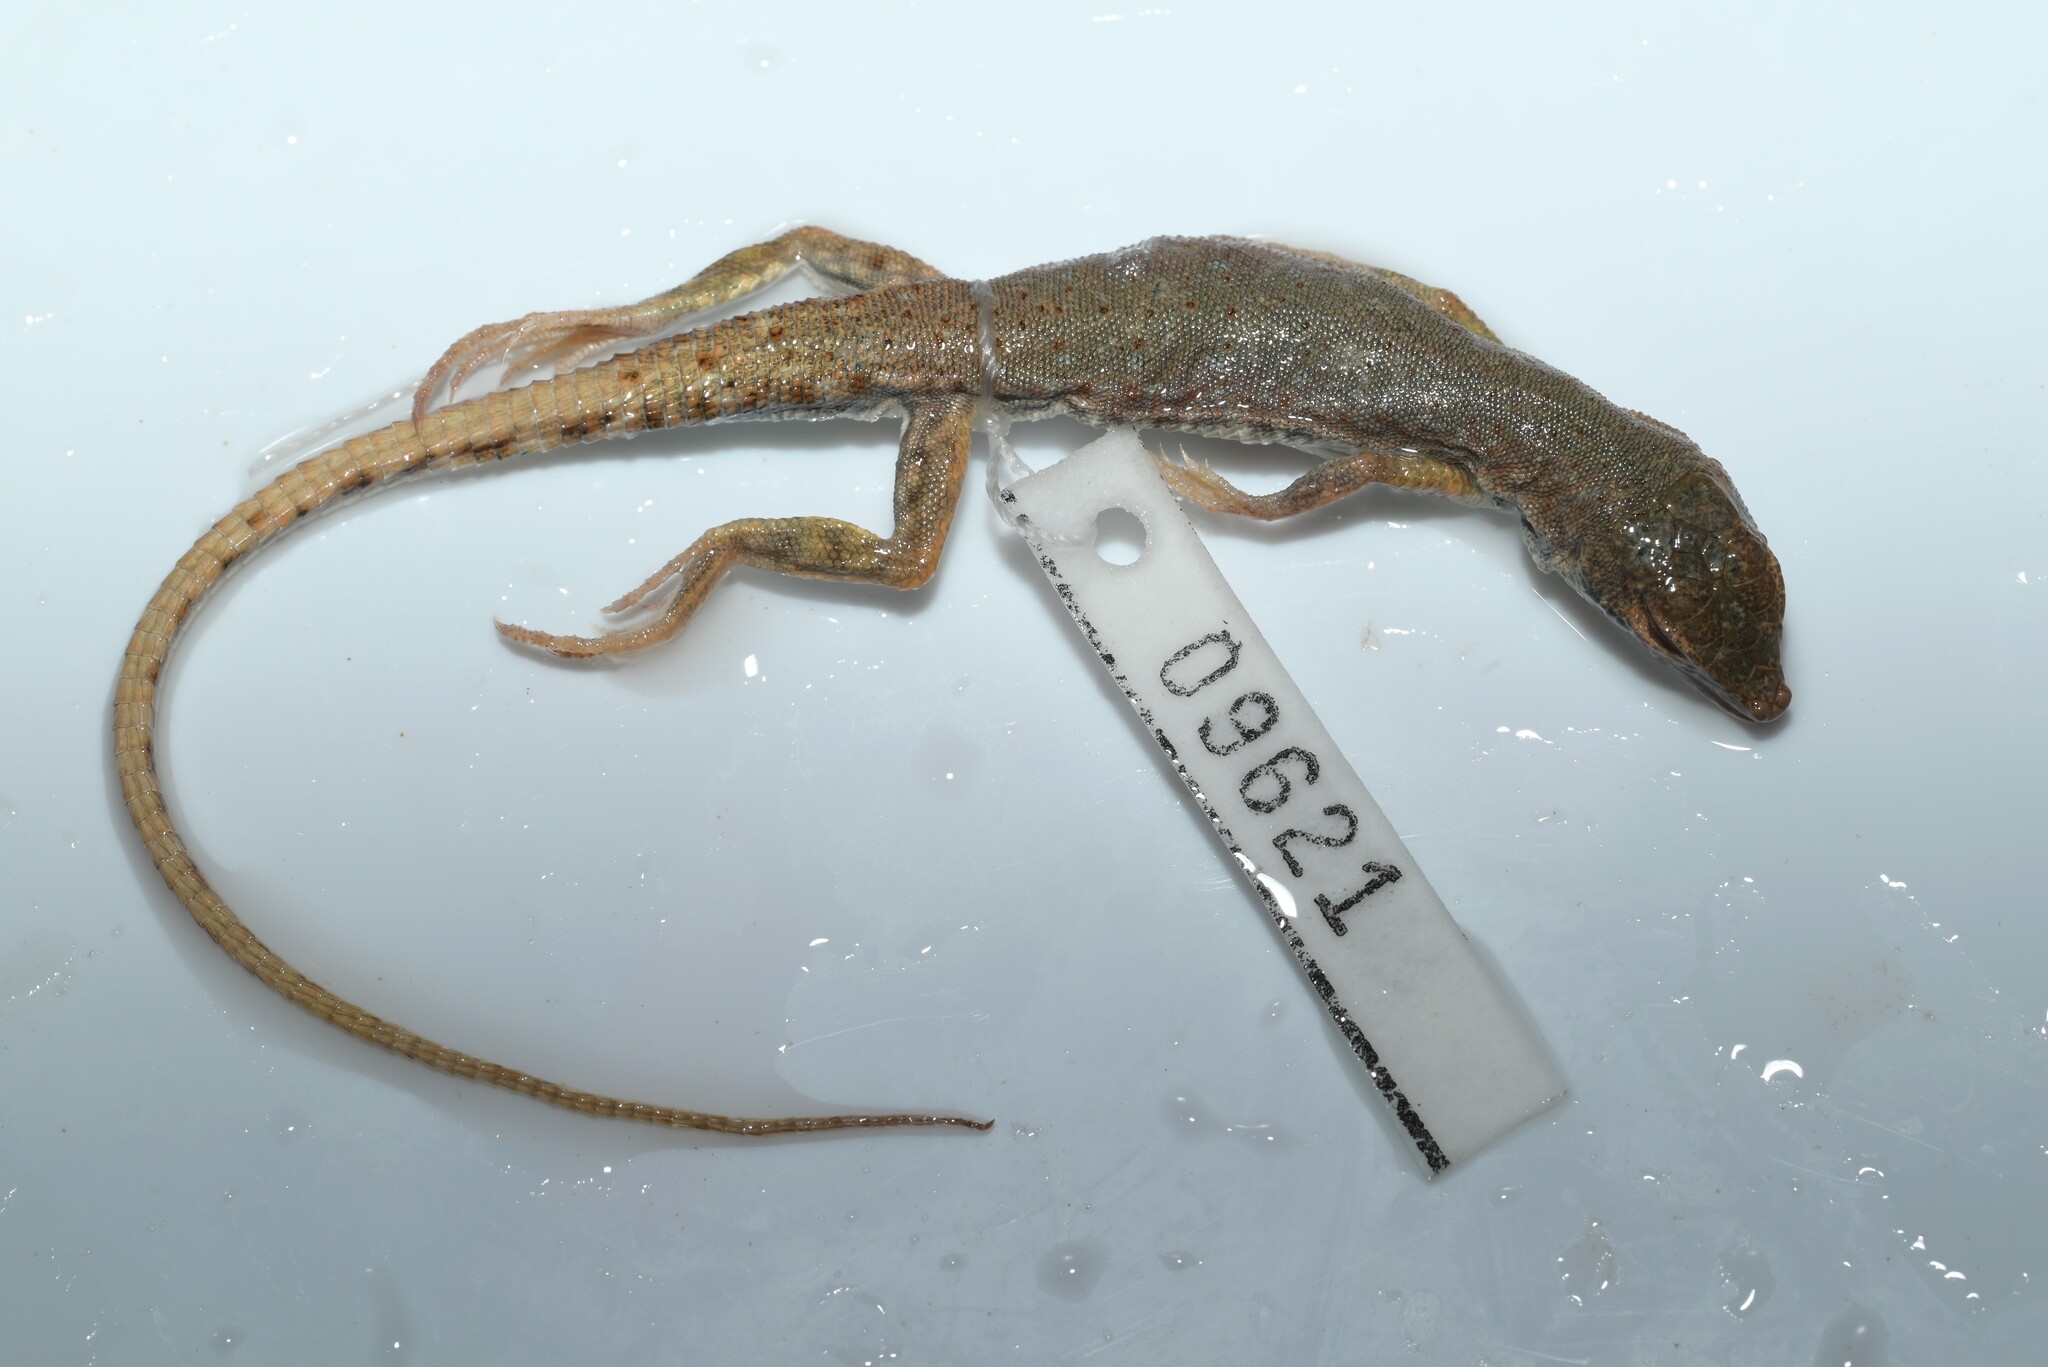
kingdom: Animalia
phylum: Chordata
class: Squamata
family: Lacertidae
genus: Mesalina
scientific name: Mesalina brevirostris
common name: Blanford's short-nosed desert lizard
